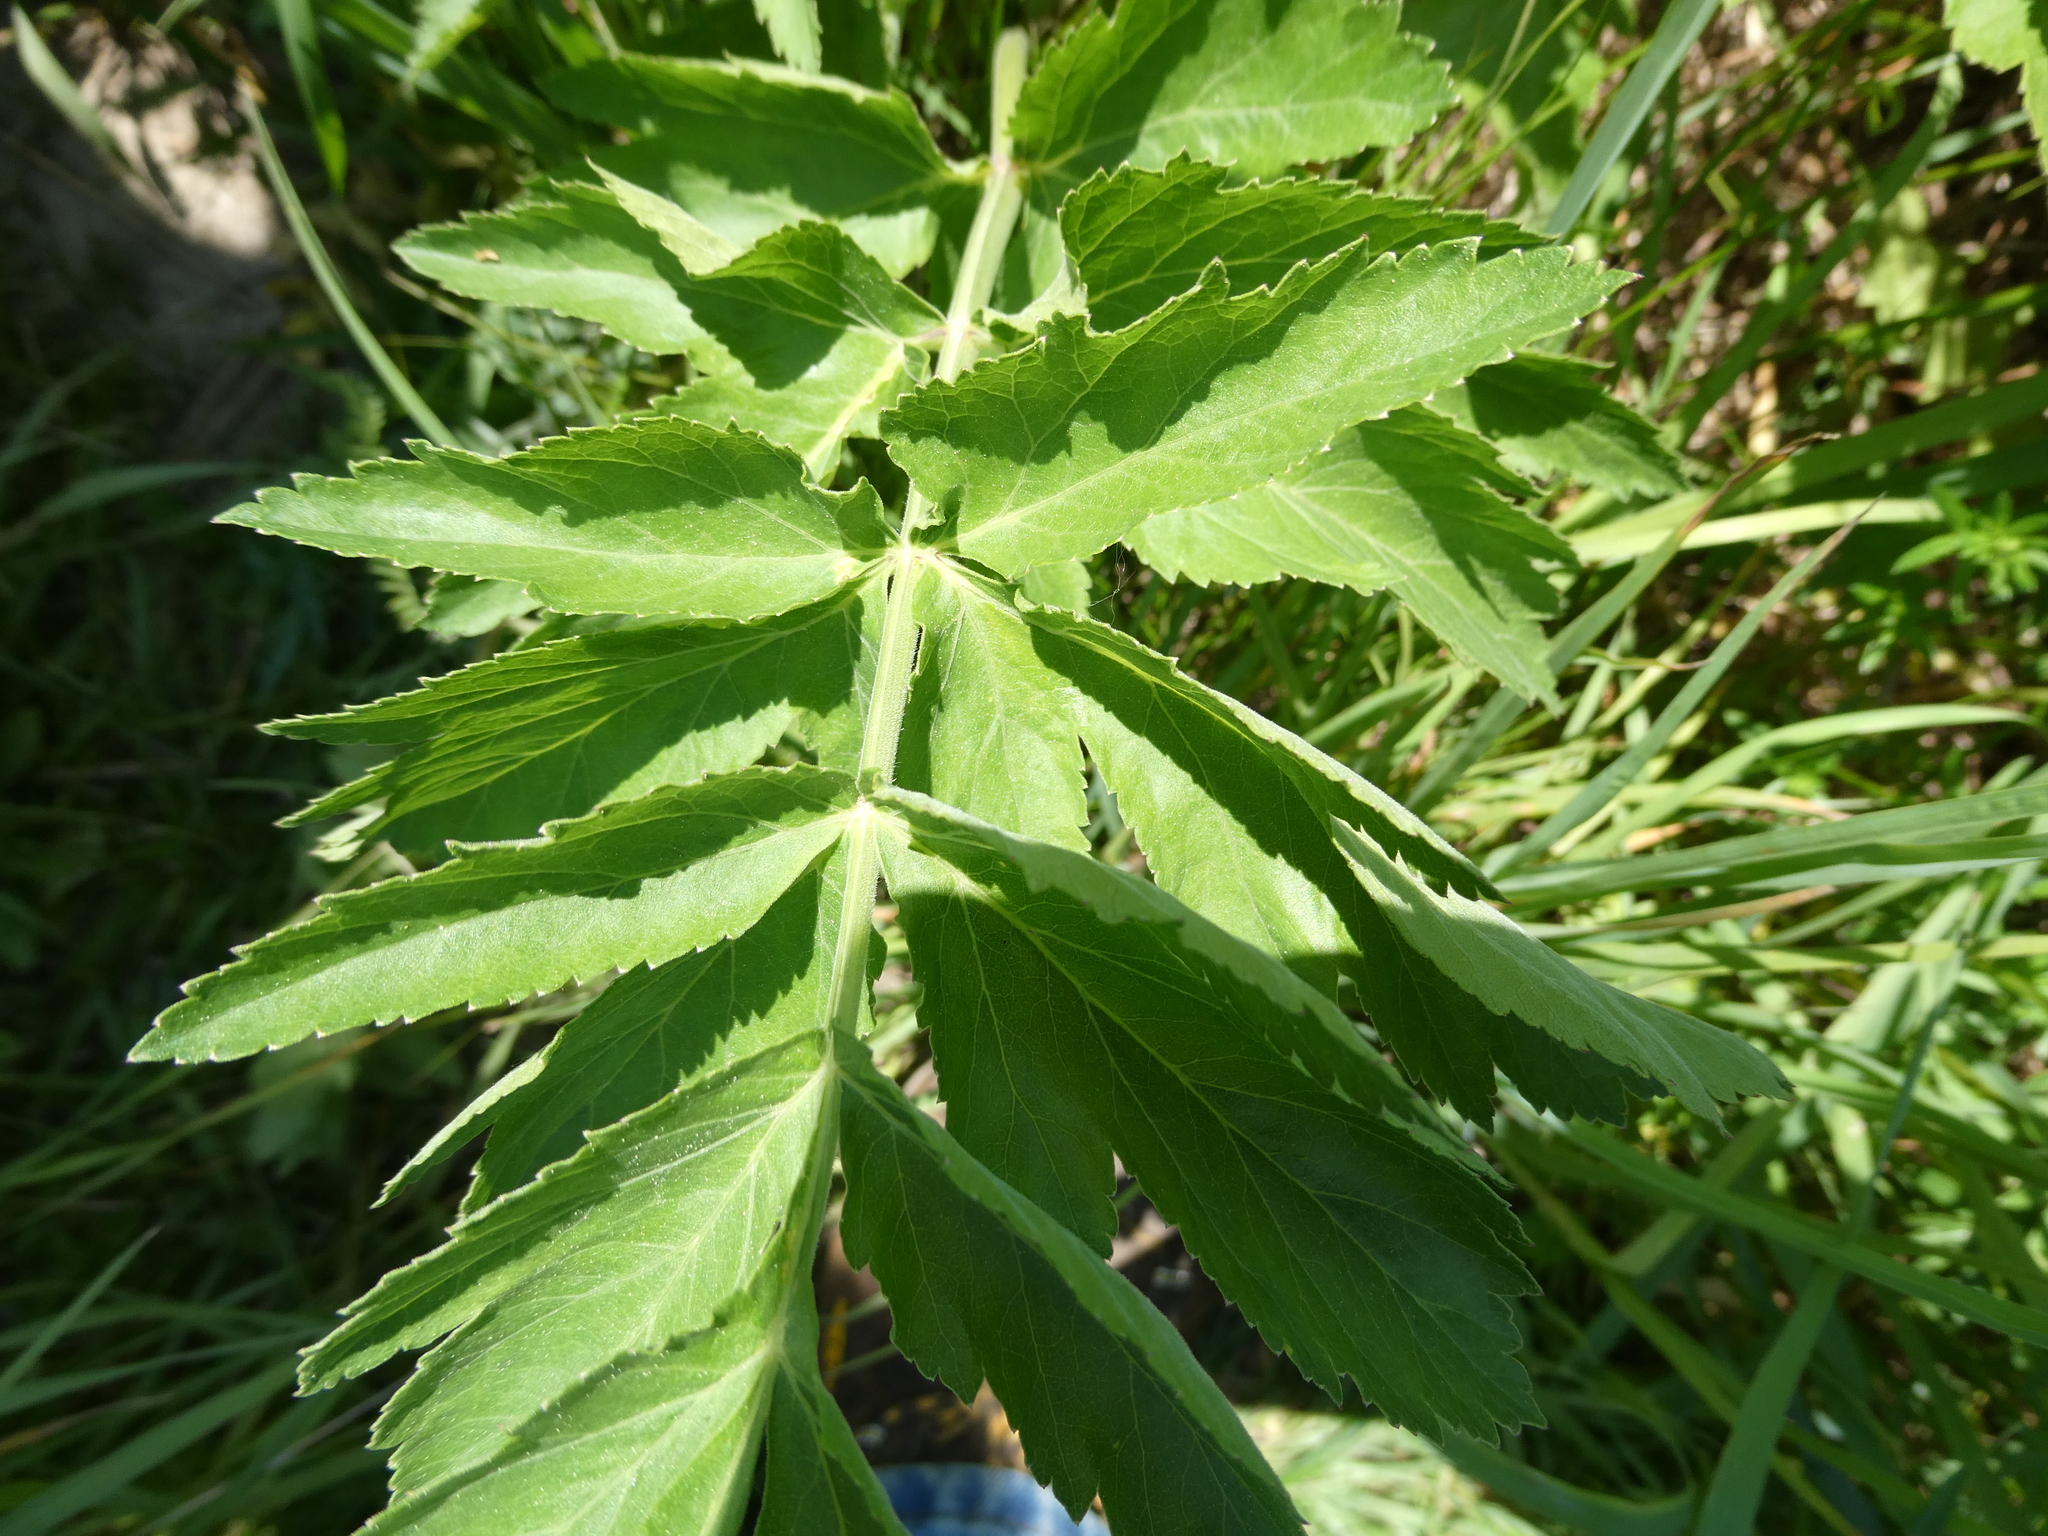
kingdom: Plantae
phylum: Tracheophyta
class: Magnoliopsida
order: Apiales
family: Apiaceae
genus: Pastinaca
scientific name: Pastinaca sativa
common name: Wild parsnip
